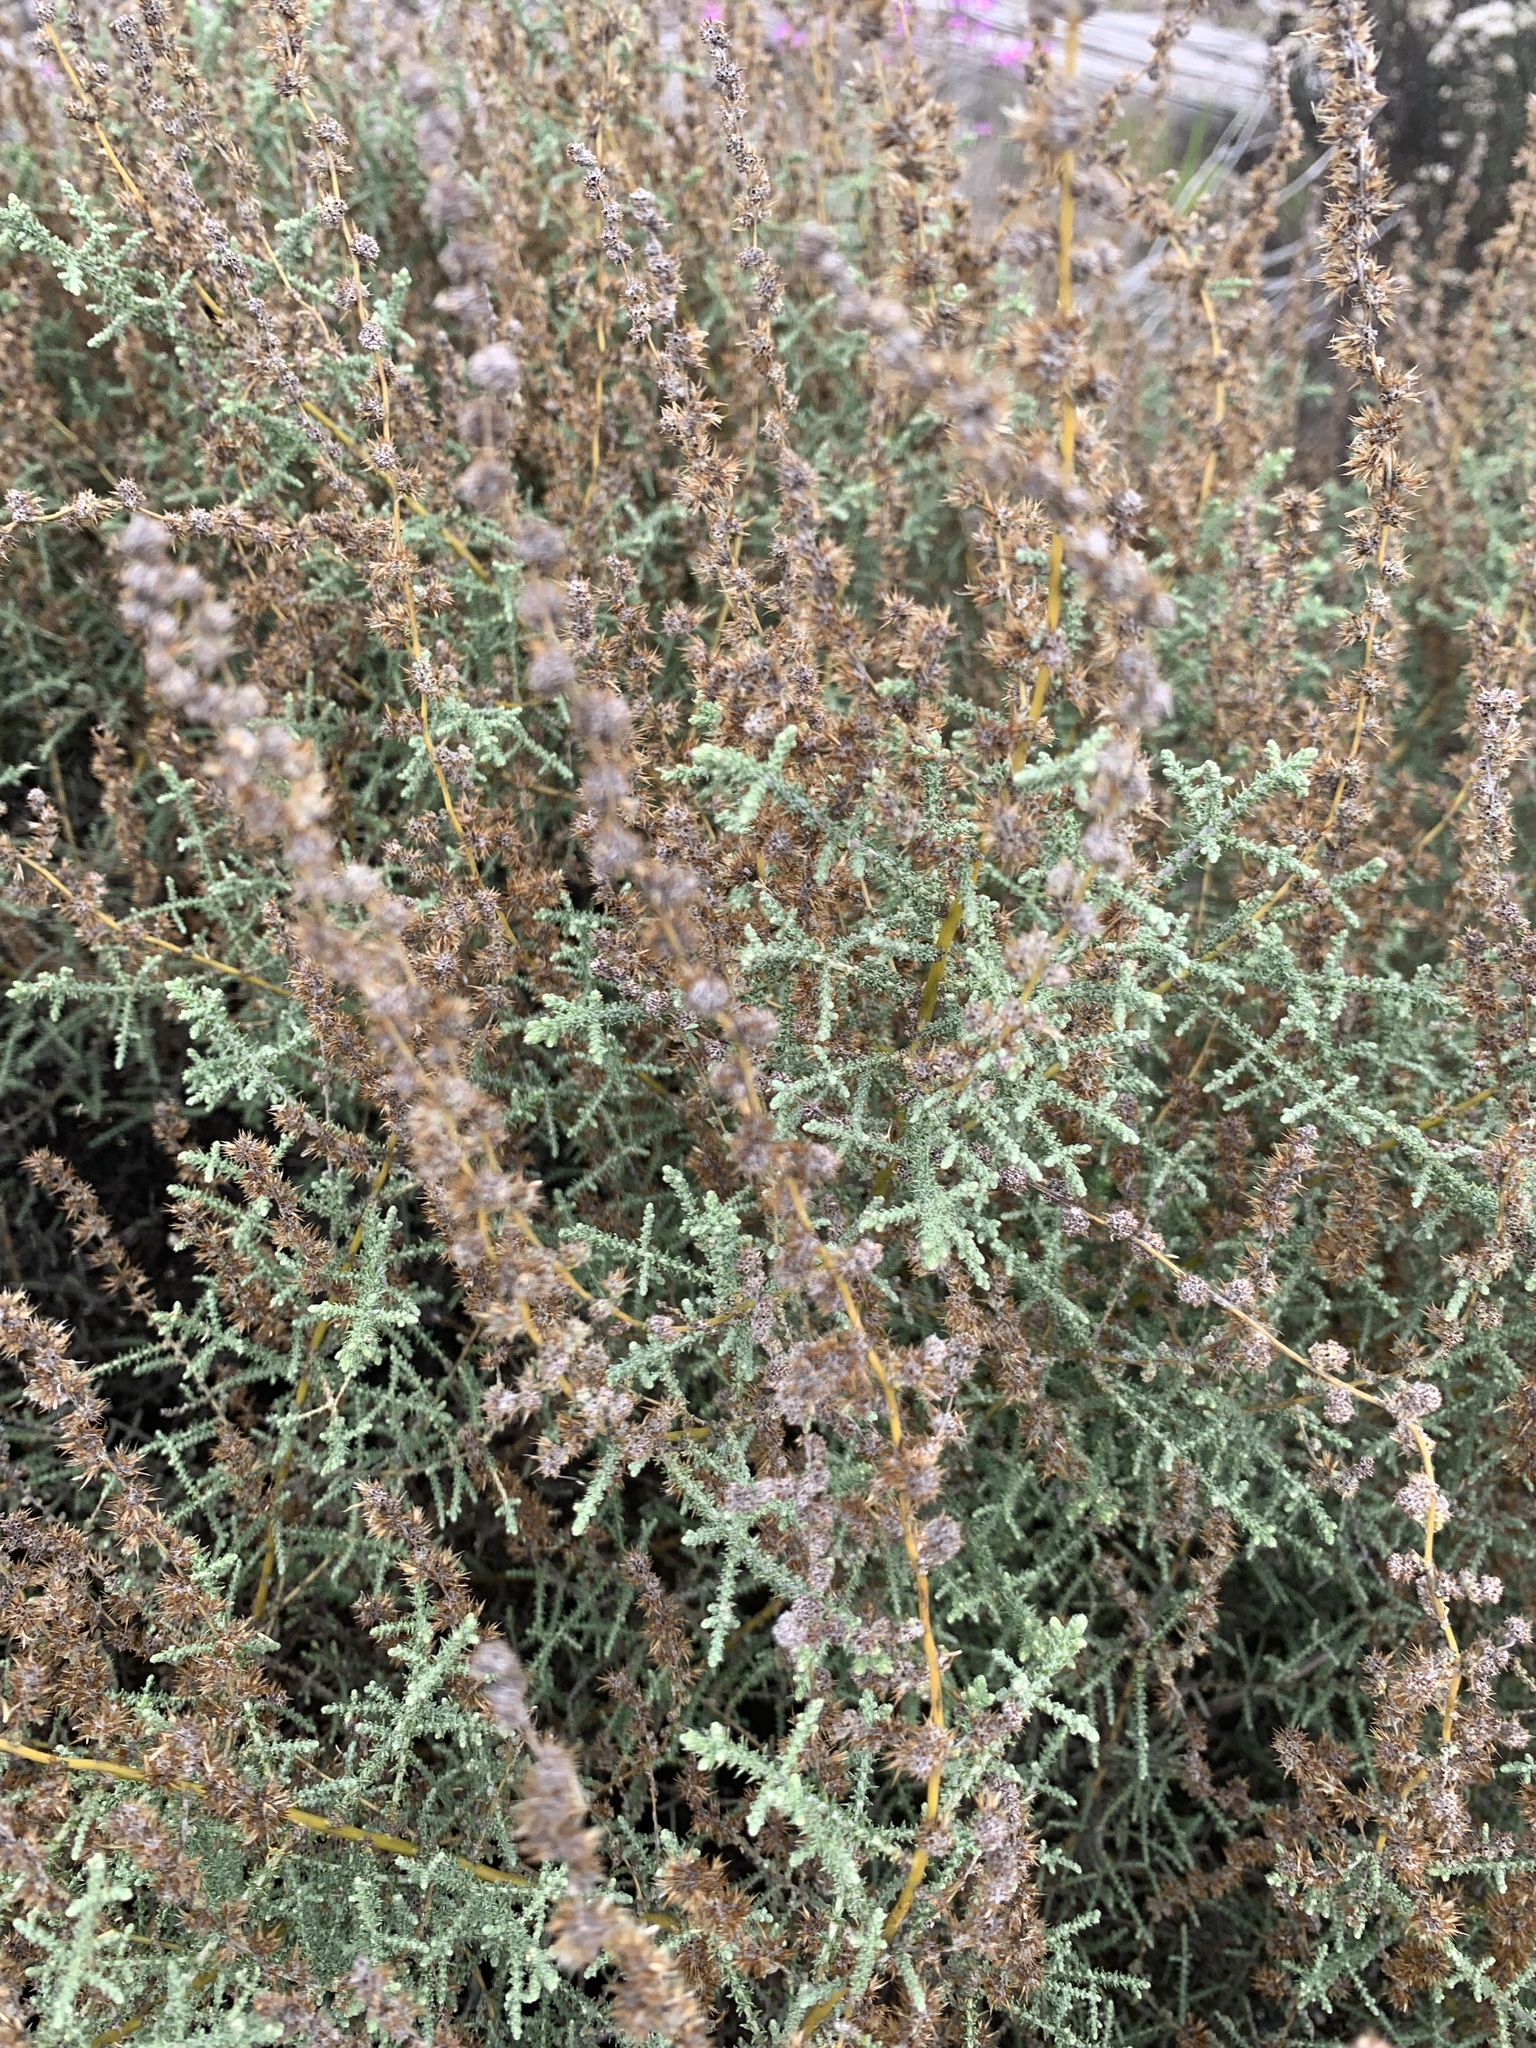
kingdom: Plantae
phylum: Tracheophyta
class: Magnoliopsida
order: Asterales
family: Asteraceae
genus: Seriphium
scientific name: Seriphium plumosum
